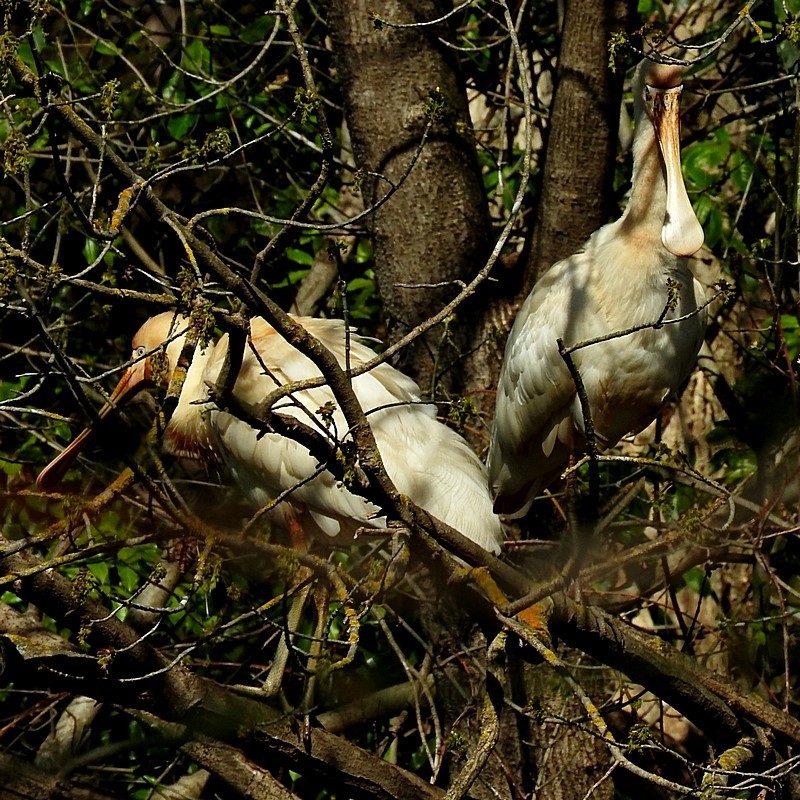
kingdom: Animalia
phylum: Chordata
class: Aves
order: Pelecaniformes
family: Threskiornithidae
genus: Platalea
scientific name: Platalea flavipes
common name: Yellow-billed spoonbill
